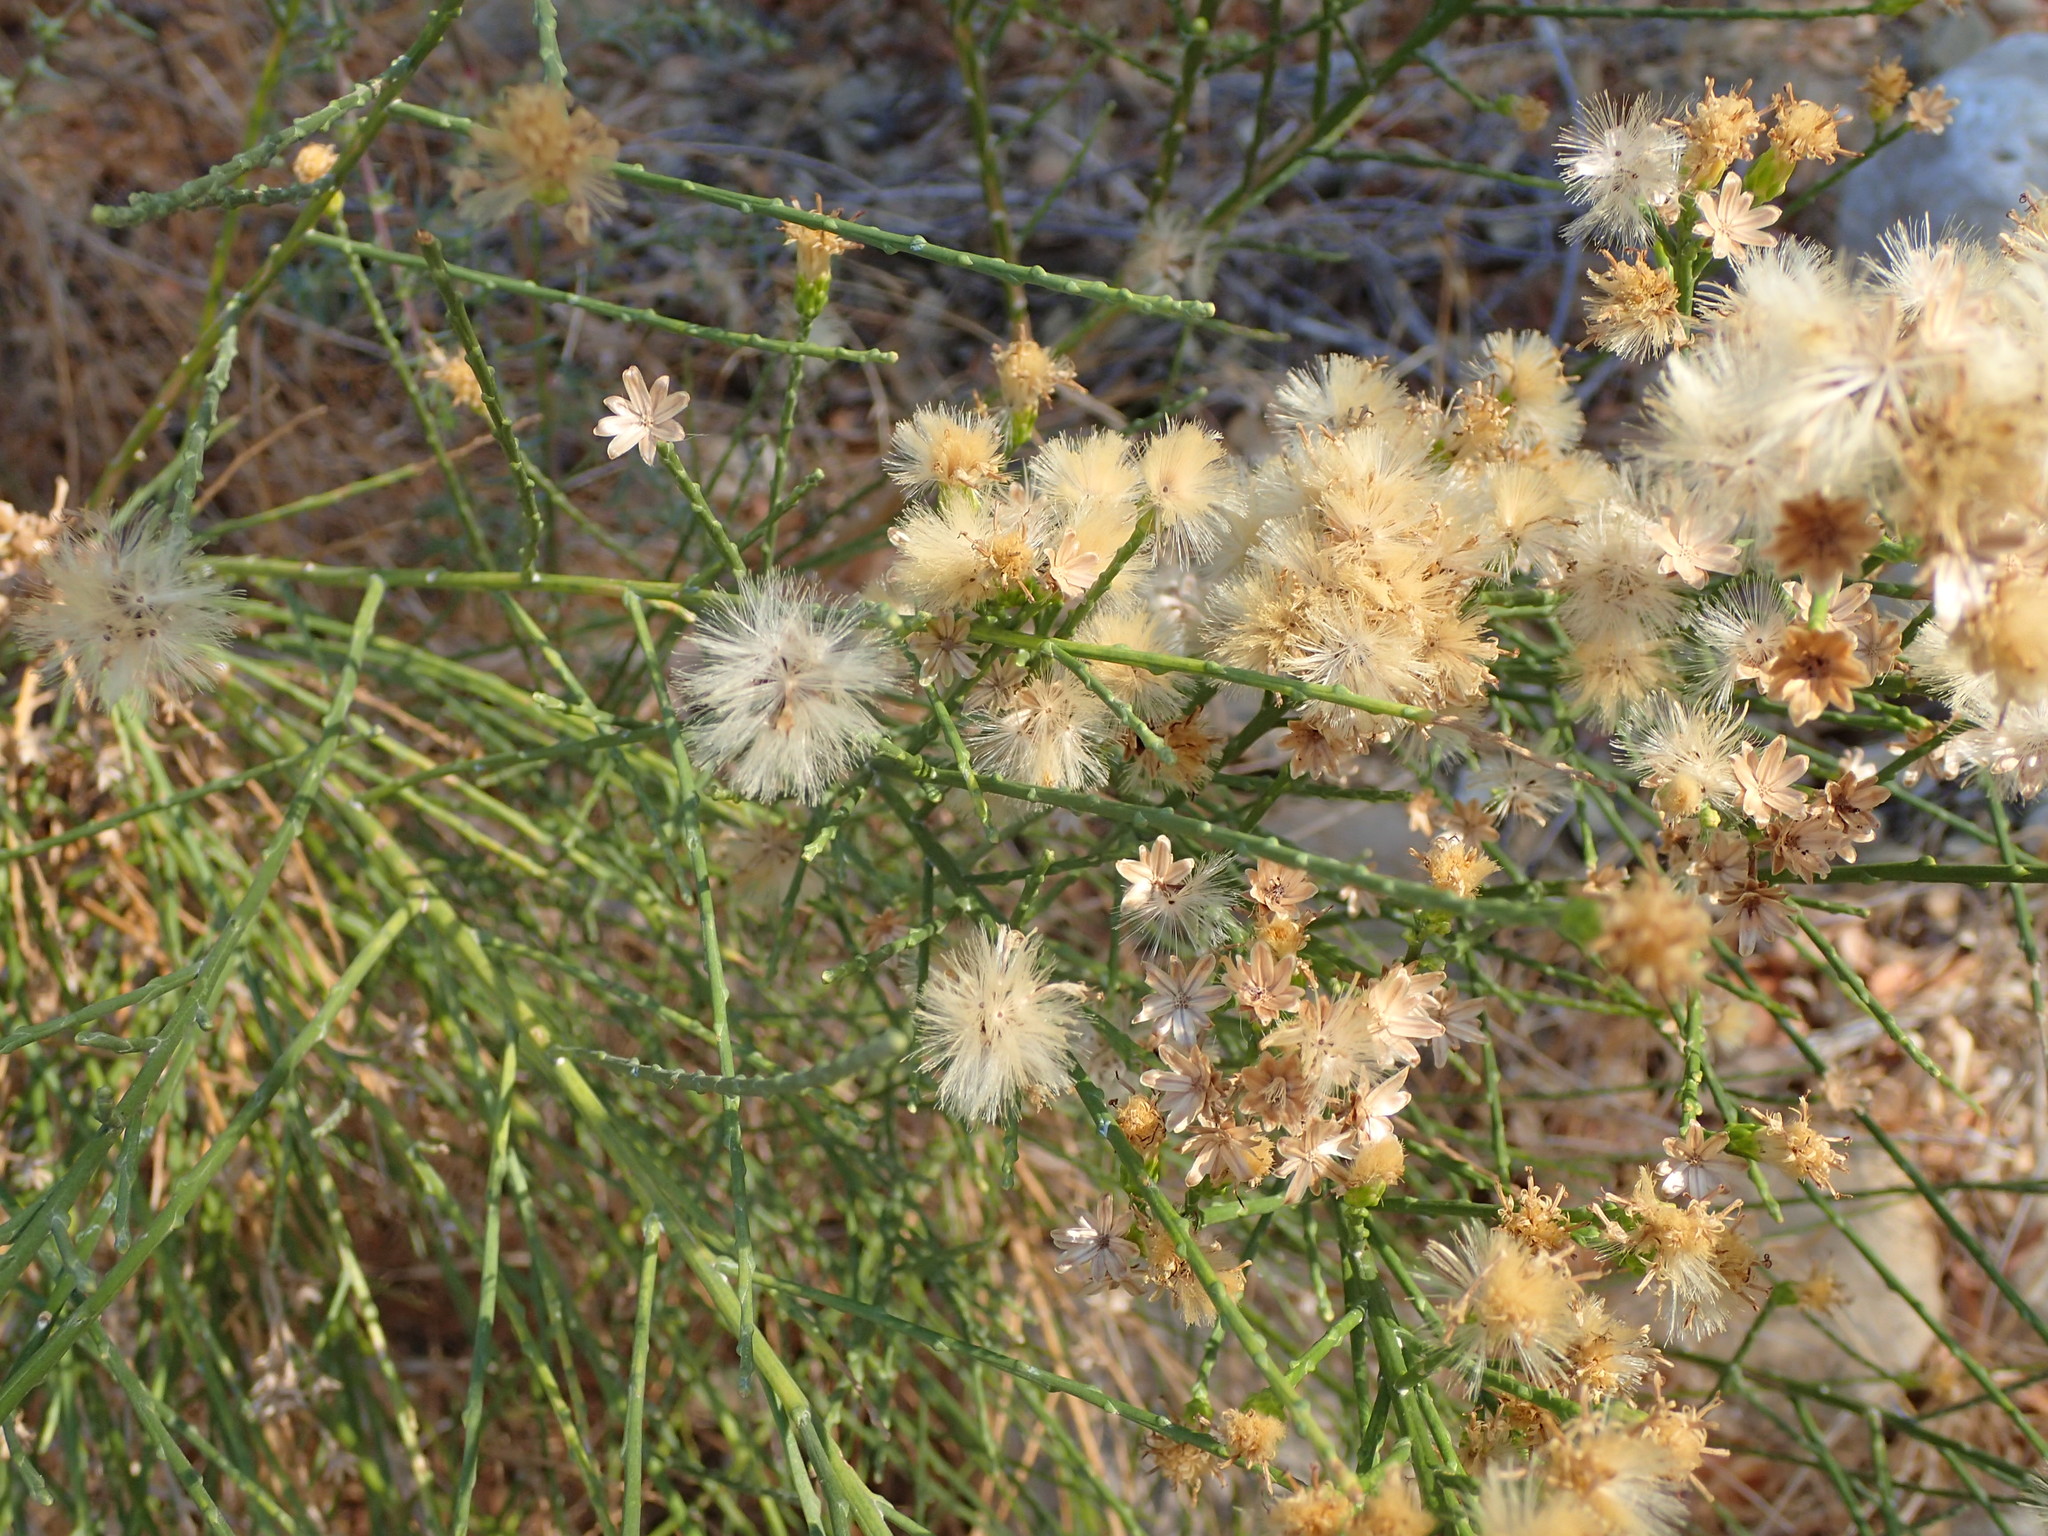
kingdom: Plantae
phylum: Tracheophyta
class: Magnoliopsida
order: Asterales
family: Asteraceae
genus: Lepidospartum
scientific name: Lepidospartum squamatum
